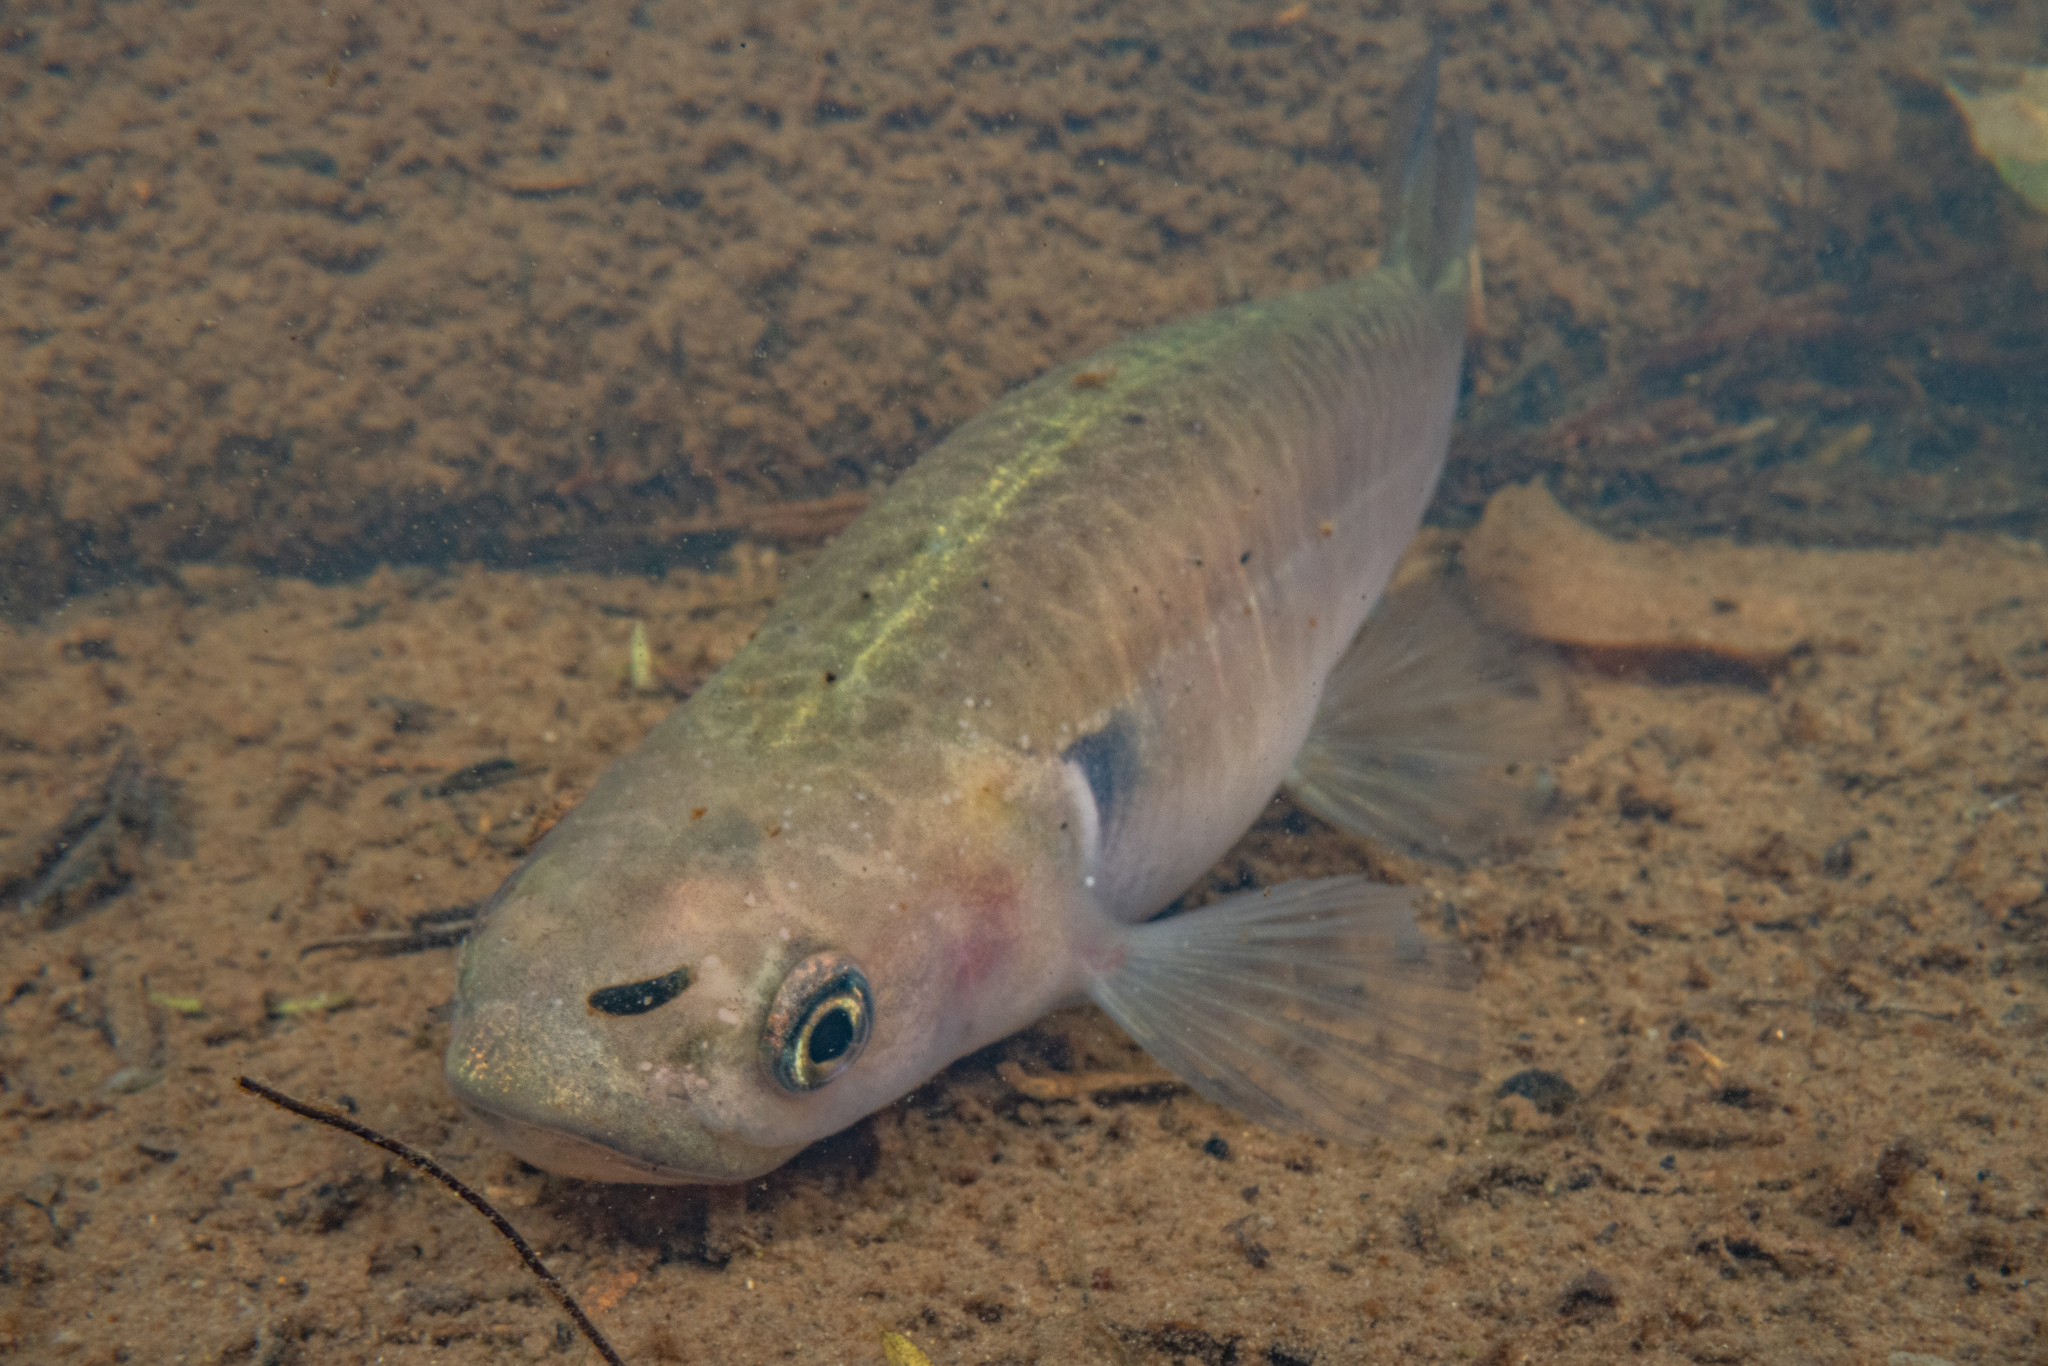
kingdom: Animalia
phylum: Chordata
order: Osmeriformes
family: Galaxiidae
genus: Galaxias
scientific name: Galaxias fasciatus
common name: Banded kokopu
